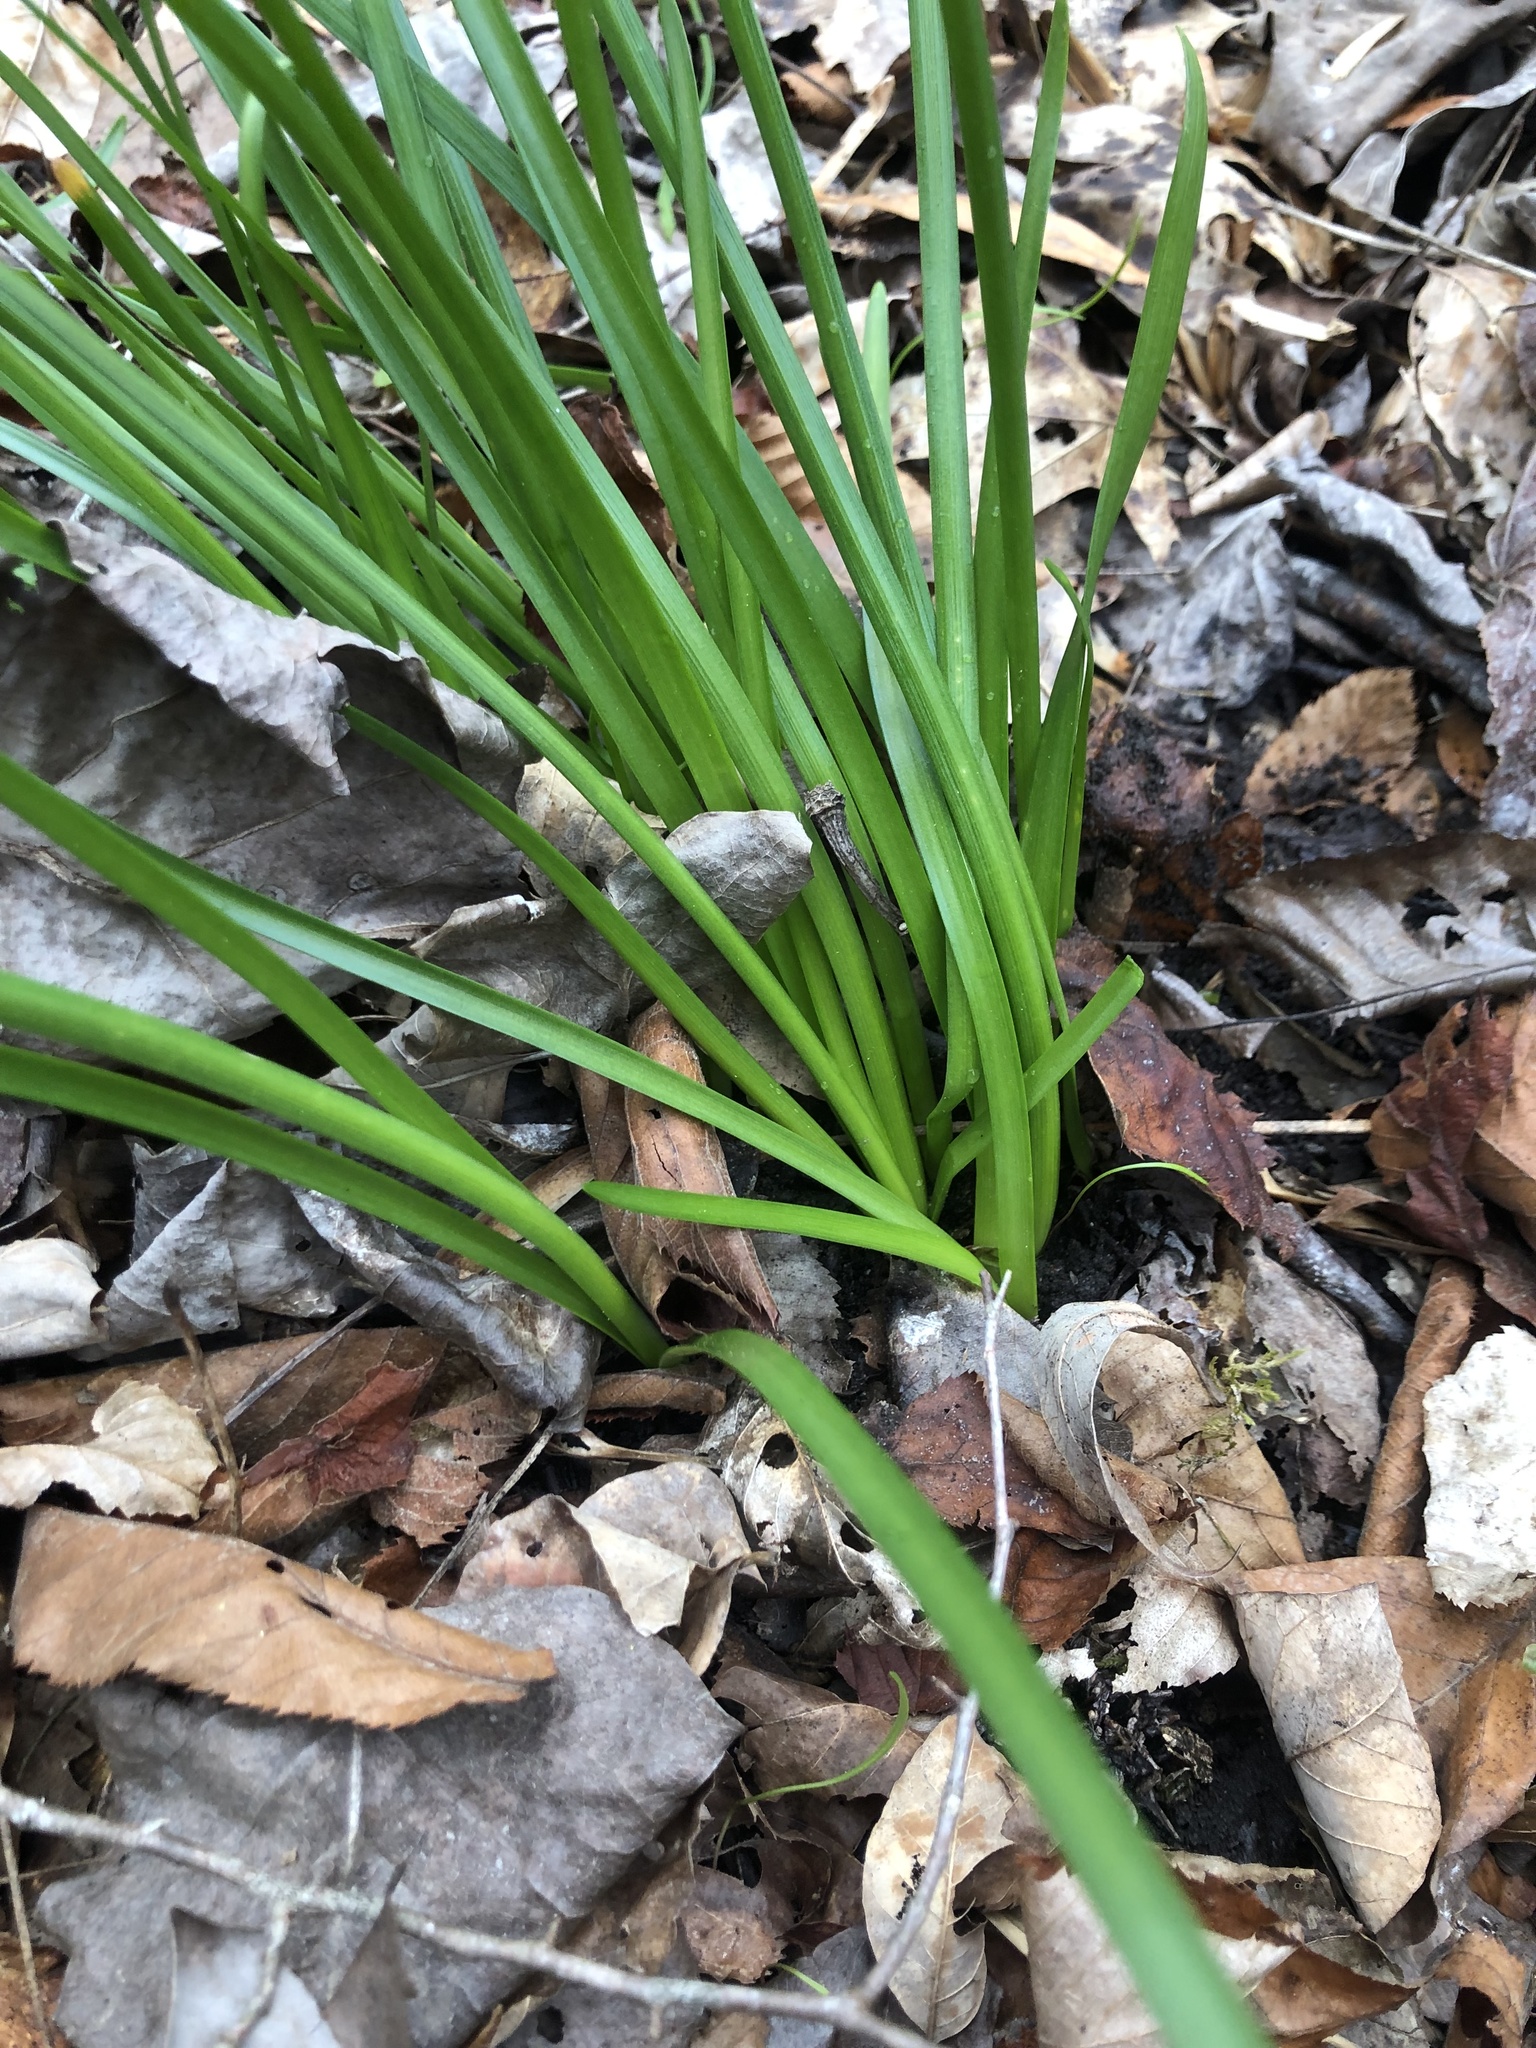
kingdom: Plantae
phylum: Tracheophyta
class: Liliopsida
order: Asparagales
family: Amaryllidaceae
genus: Zephyranthes
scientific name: Zephyranthes atamasco
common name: Atamasco lily
